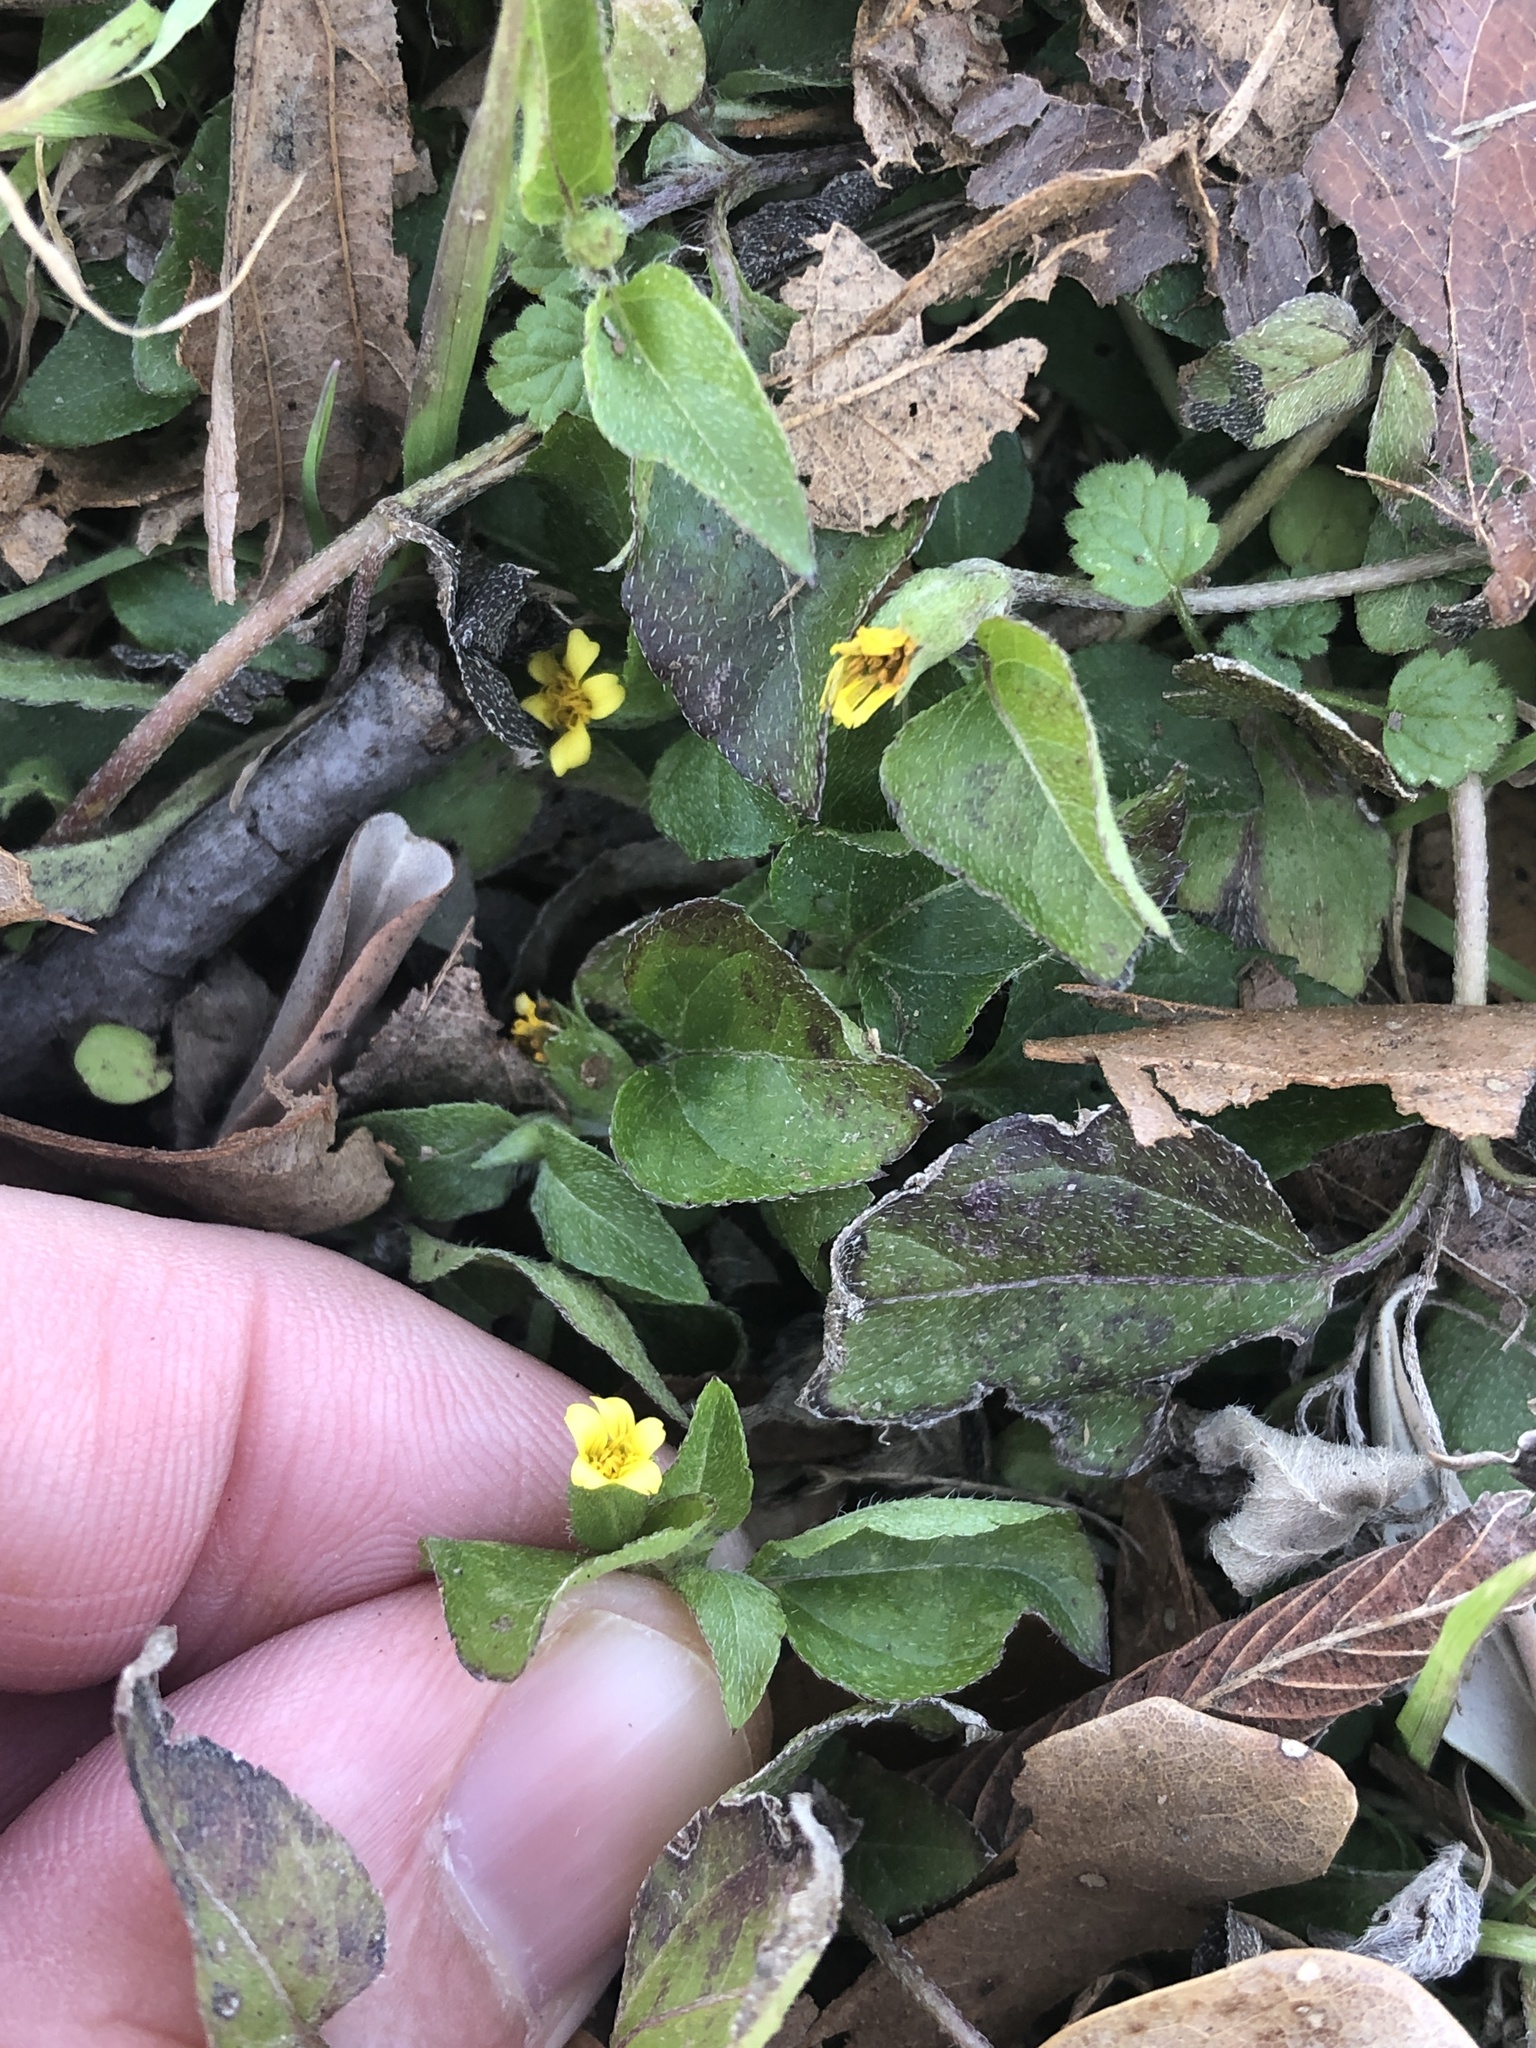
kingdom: Plantae
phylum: Tracheophyta
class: Magnoliopsida
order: Asterales
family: Asteraceae
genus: Calyptocarpus
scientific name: Calyptocarpus vialis
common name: Straggler daisy
